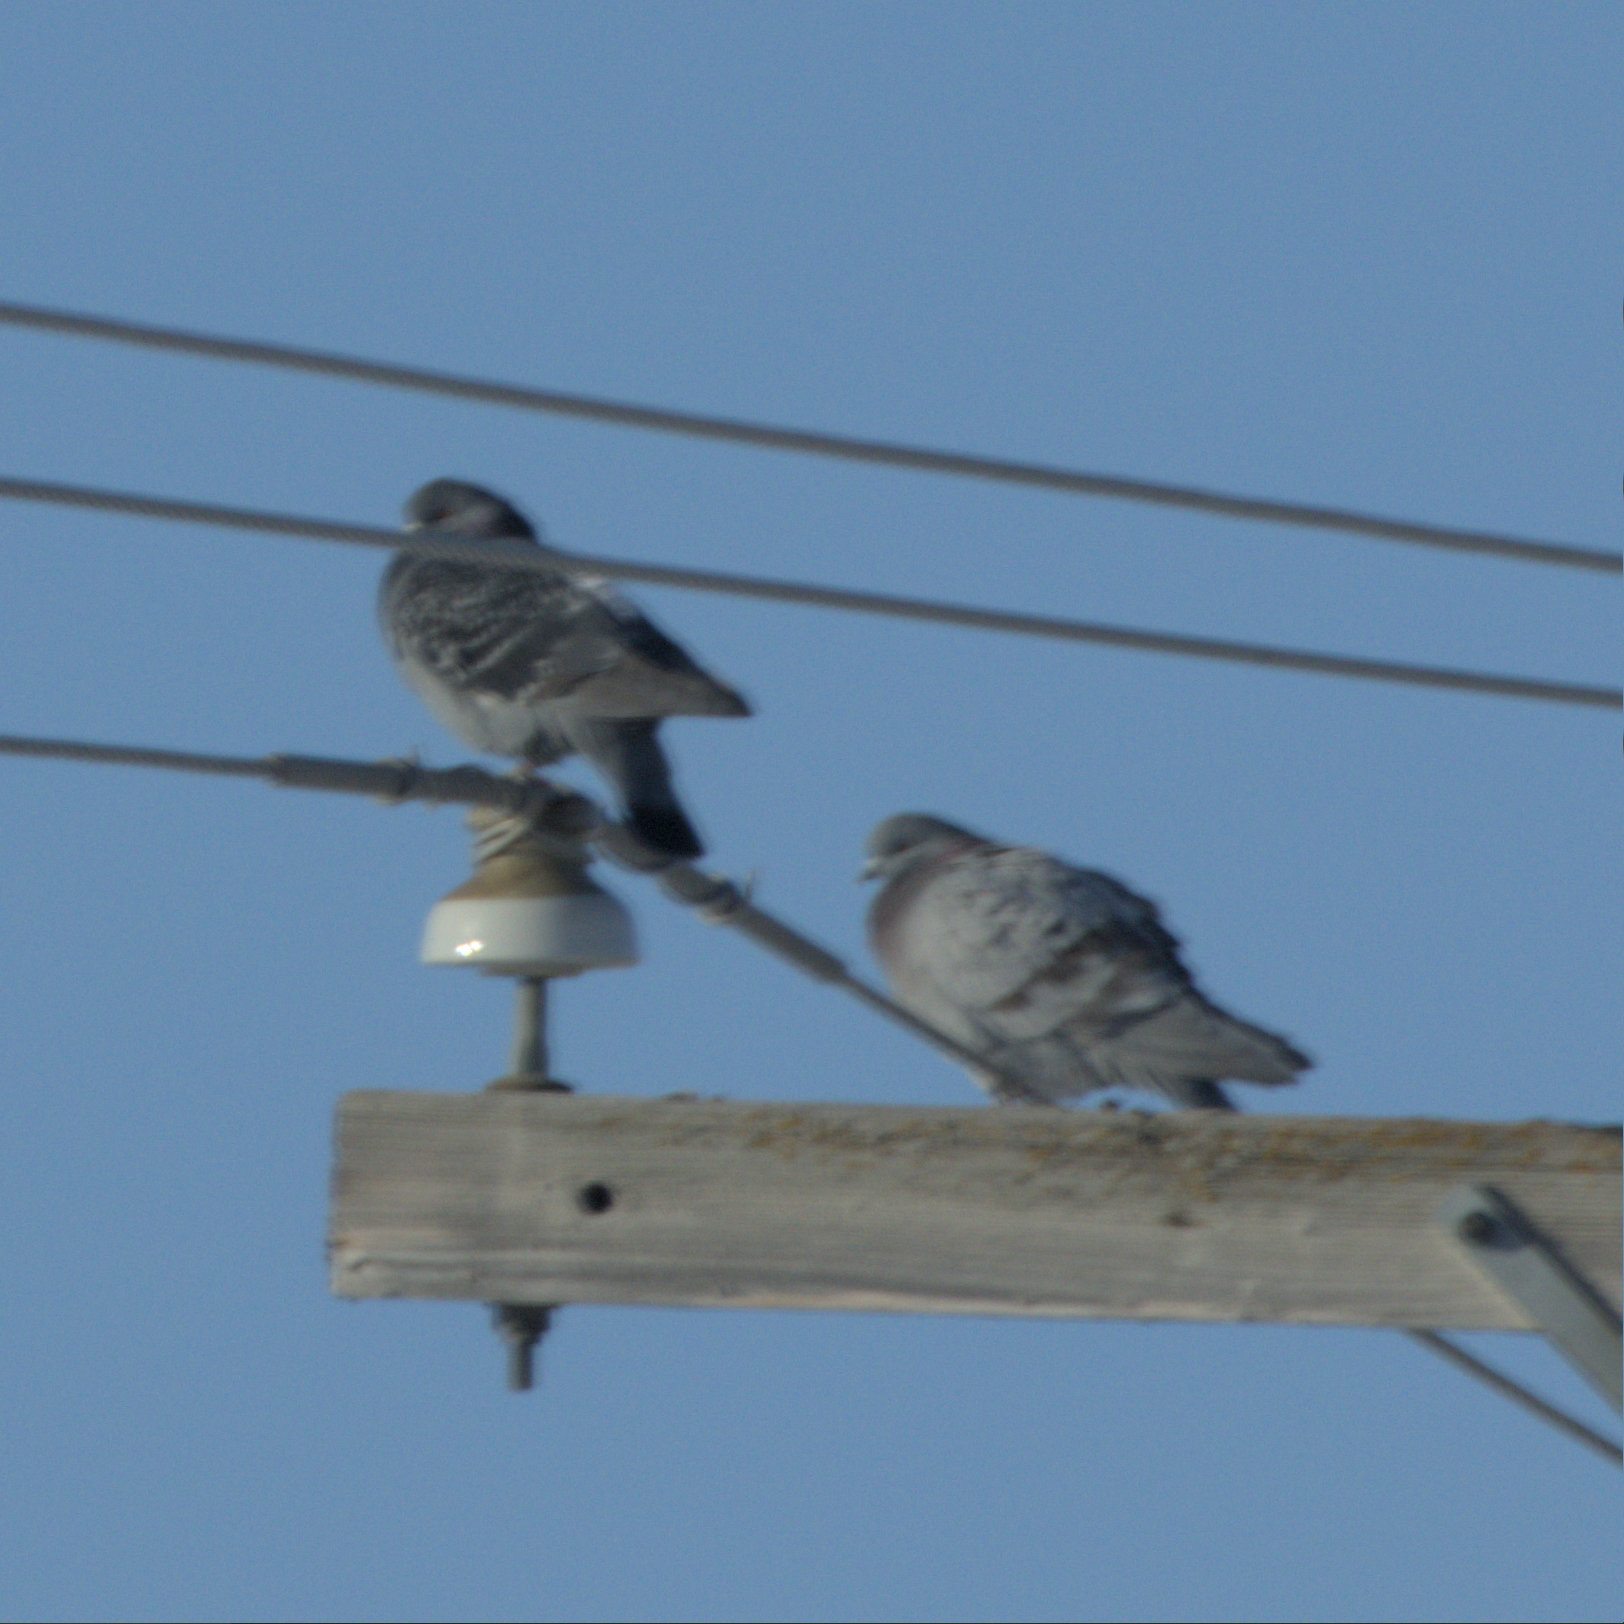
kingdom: Animalia
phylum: Chordata
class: Aves
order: Columbiformes
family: Columbidae
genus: Columba
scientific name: Columba livia
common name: Rock pigeon
